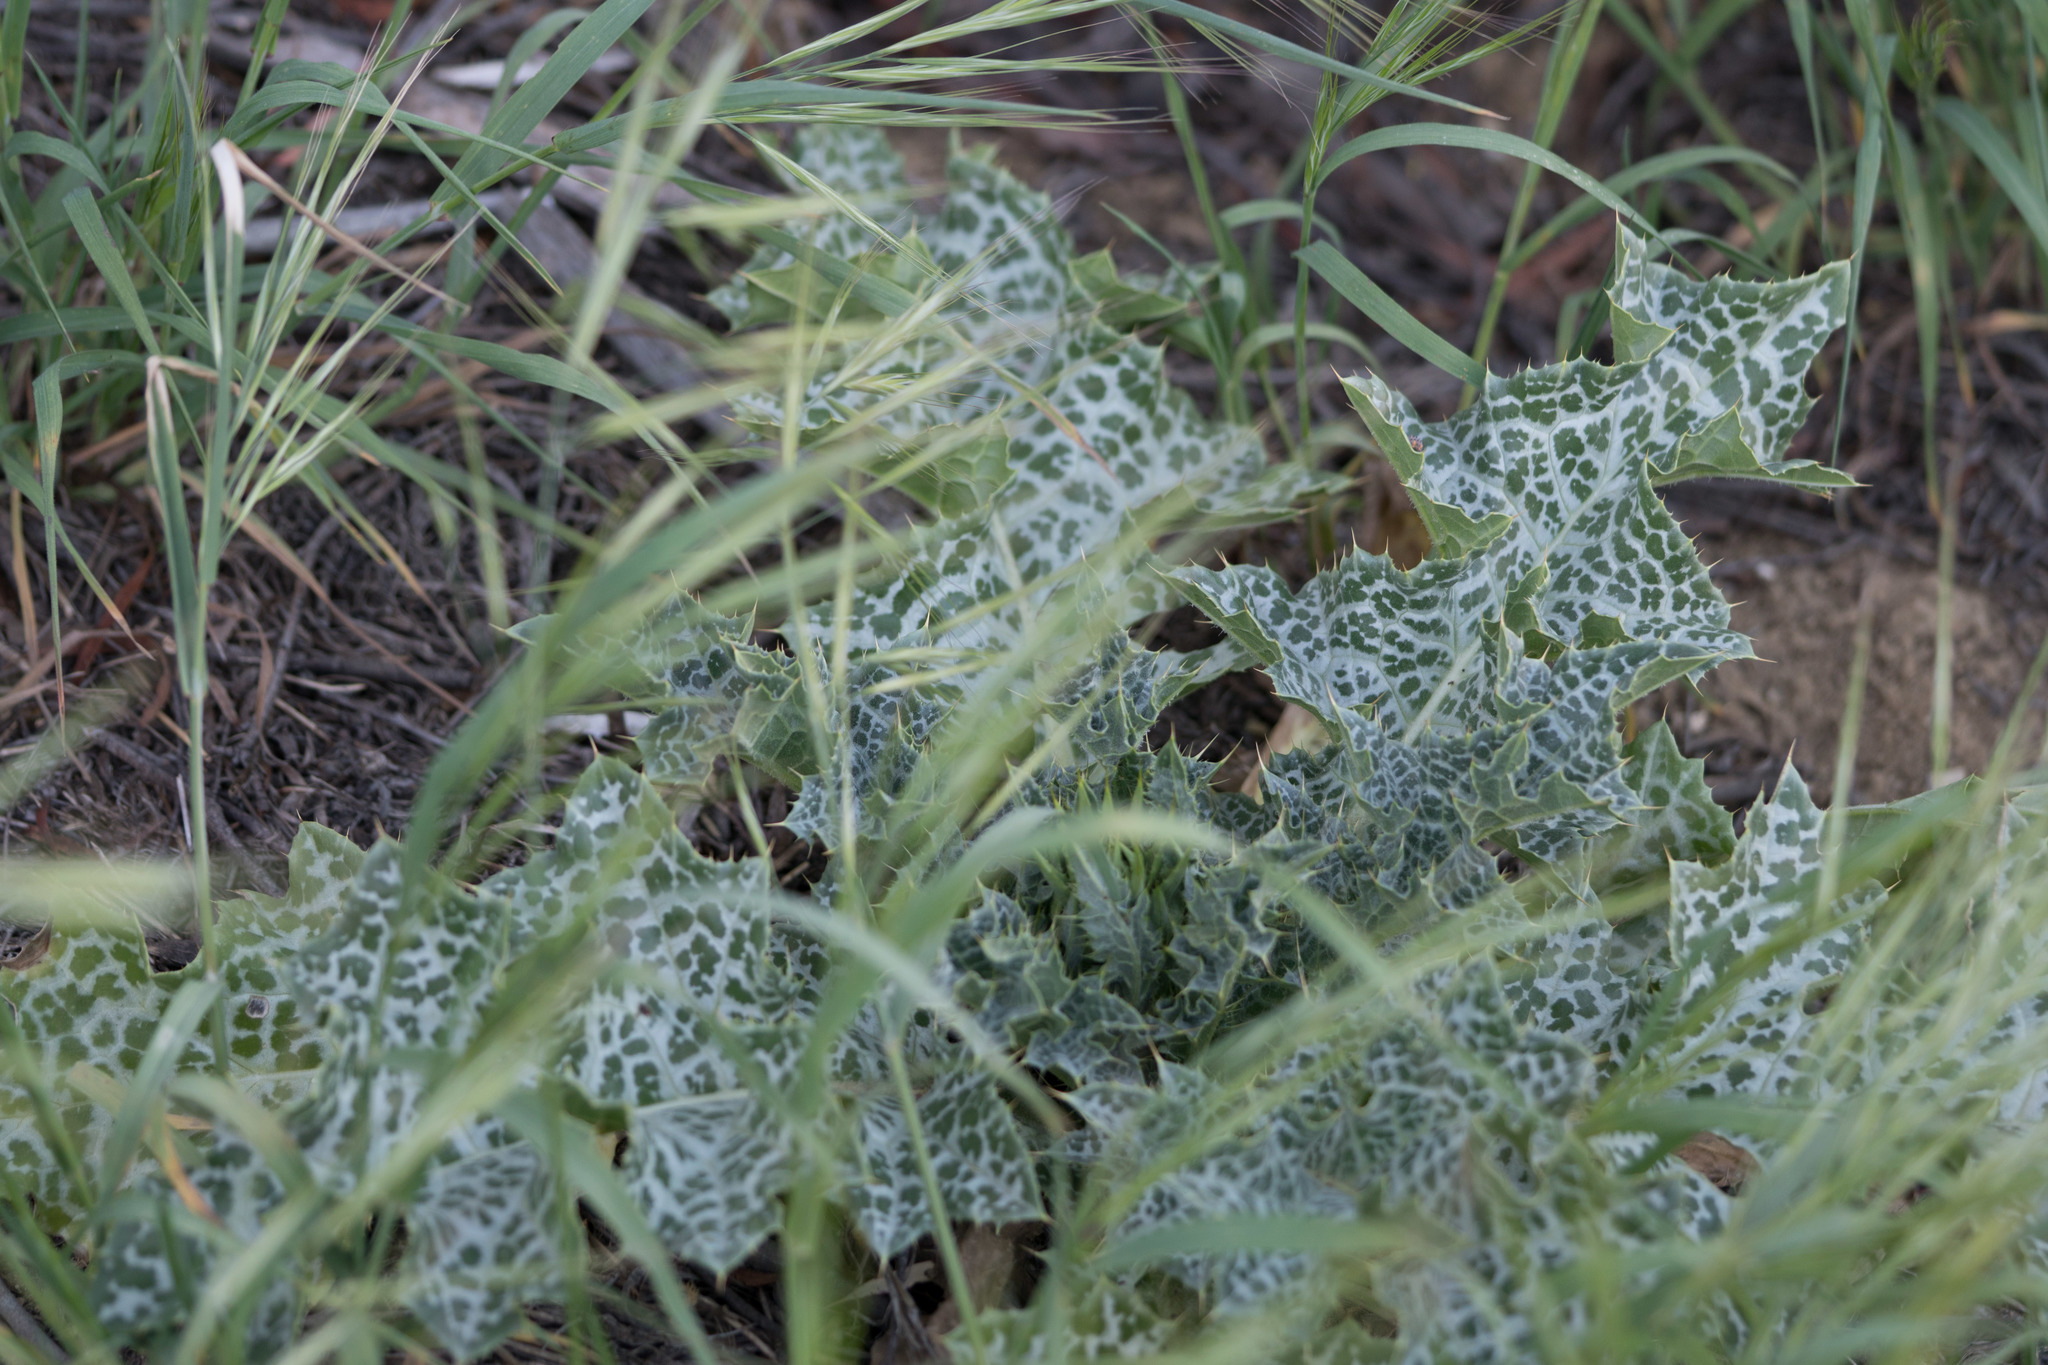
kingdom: Plantae
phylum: Tracheophyta
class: Magnoliopsida
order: Asterales
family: Asteraceae
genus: Silybum
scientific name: Silybum marianum
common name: Milk thistle
